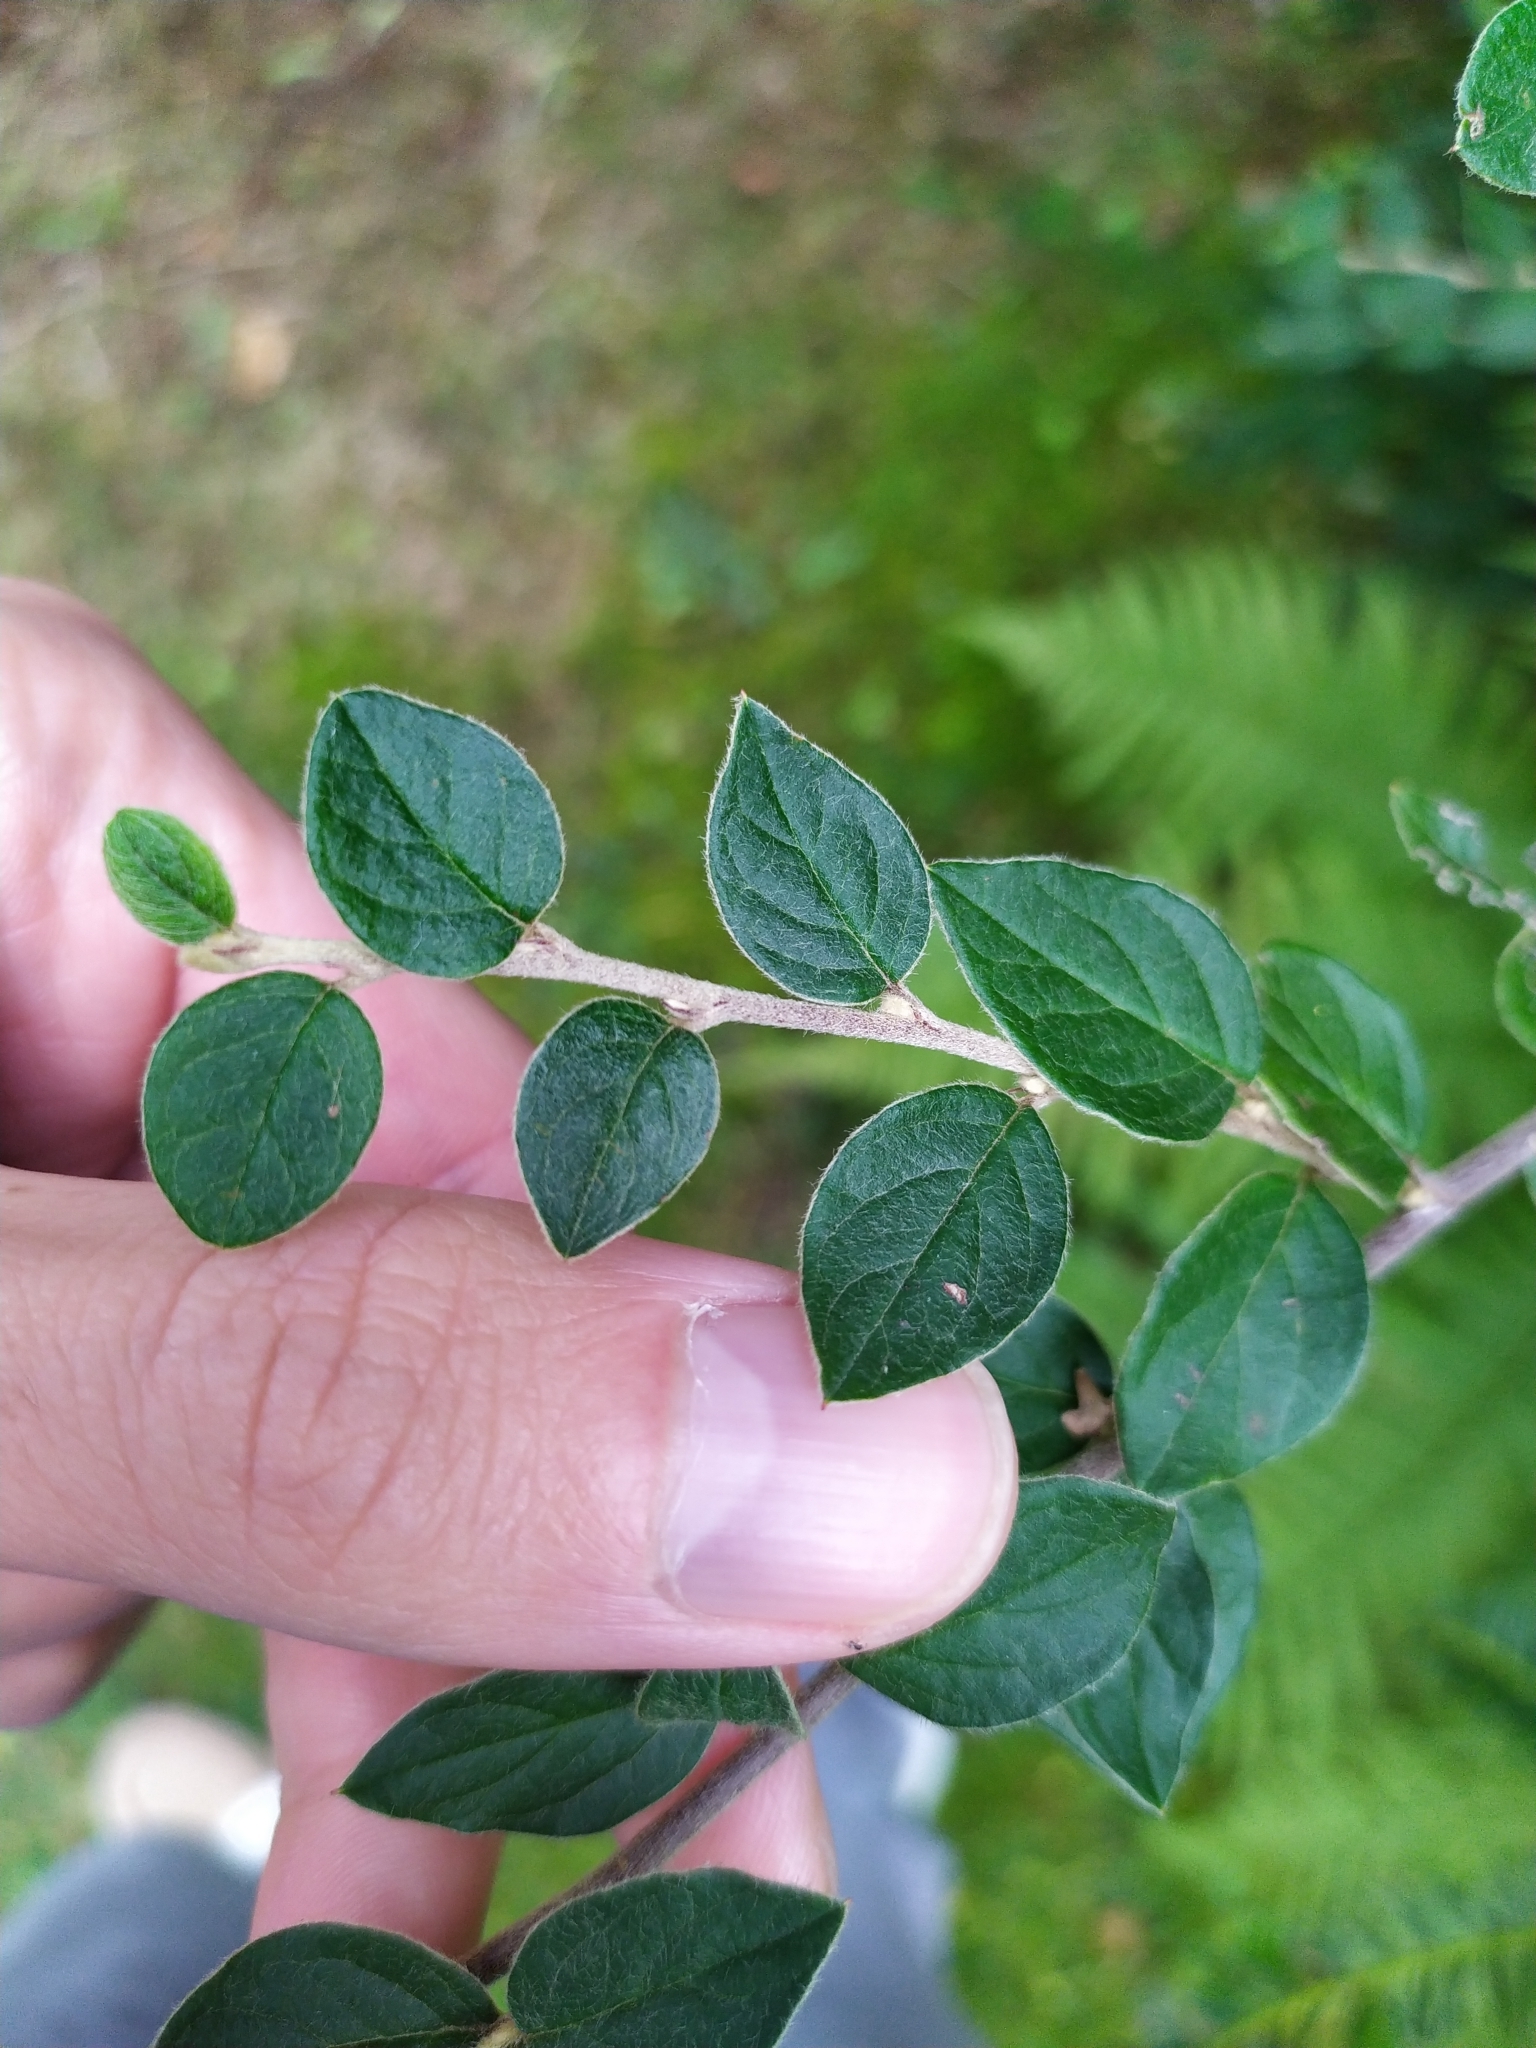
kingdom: Plantae
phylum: Tracheophyta
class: Magnoliopsida
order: Rosales
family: Rosaceae
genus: Cotoneaster
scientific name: Cotoneaster integerrimus
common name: Wild cotoneaster
